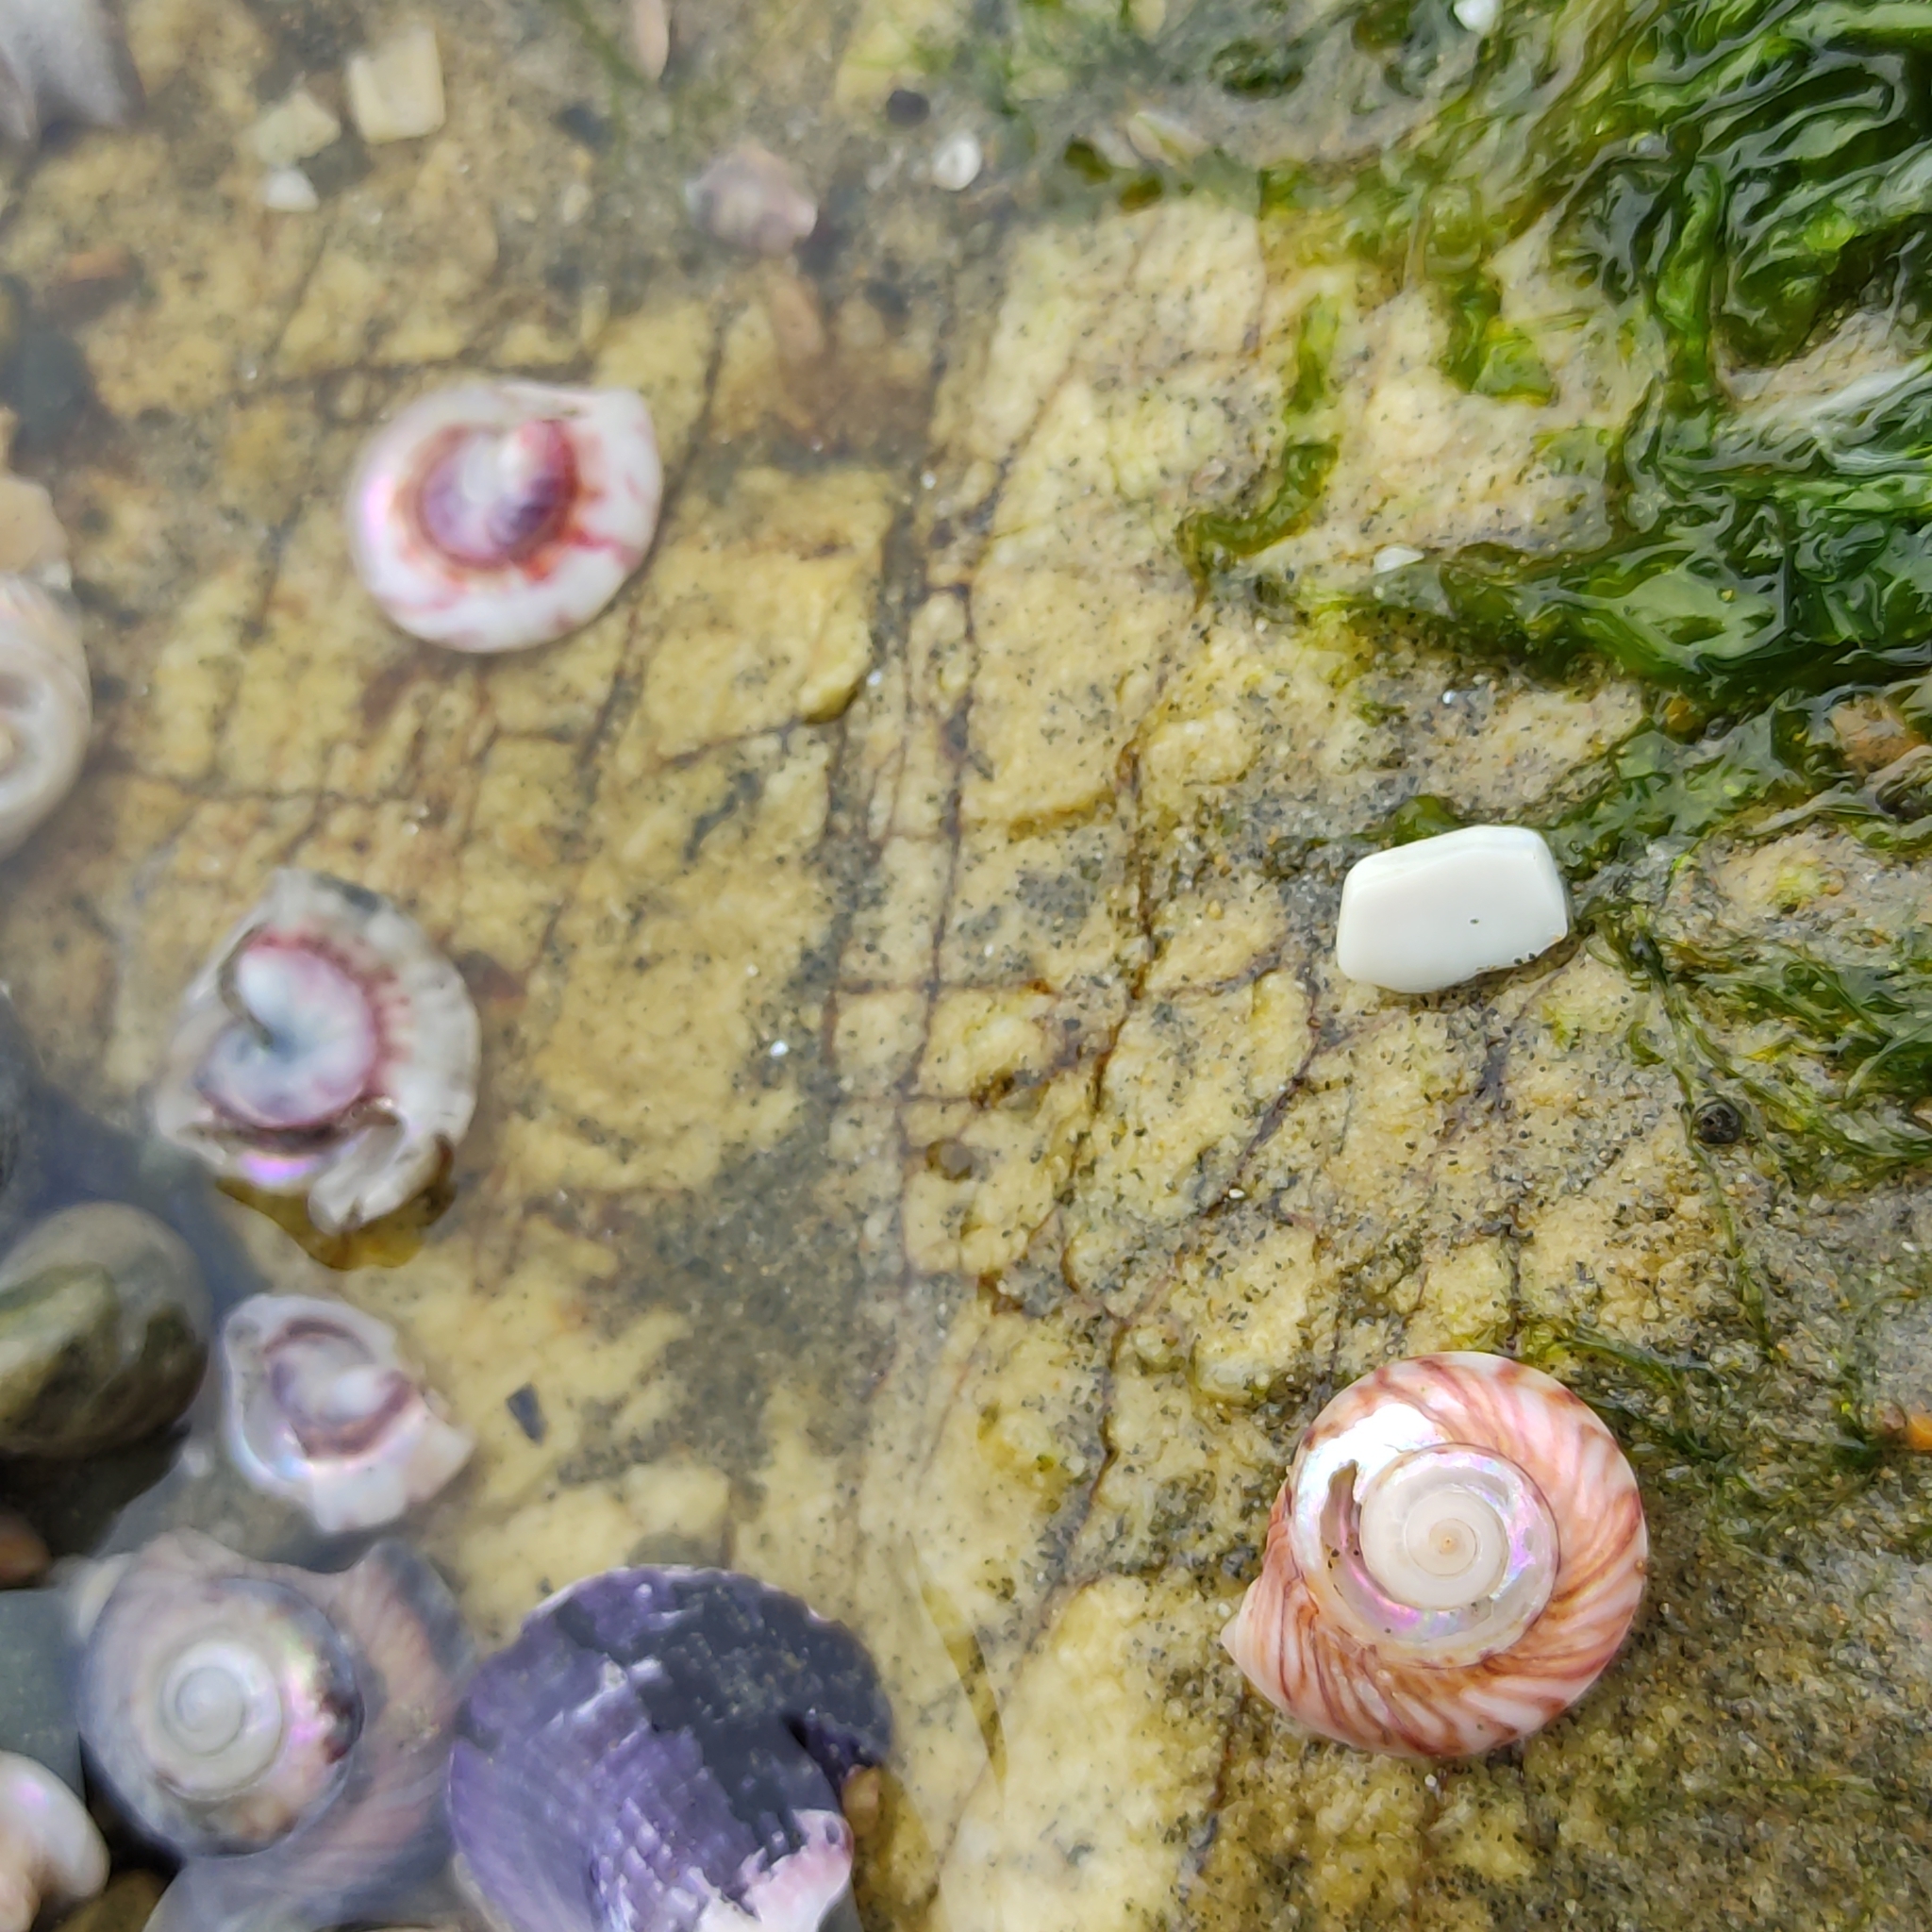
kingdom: Animalia
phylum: Mollusca
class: Gastropoda
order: Trochida
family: Trochidae
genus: Zethalia
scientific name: Zethalia zelandica
